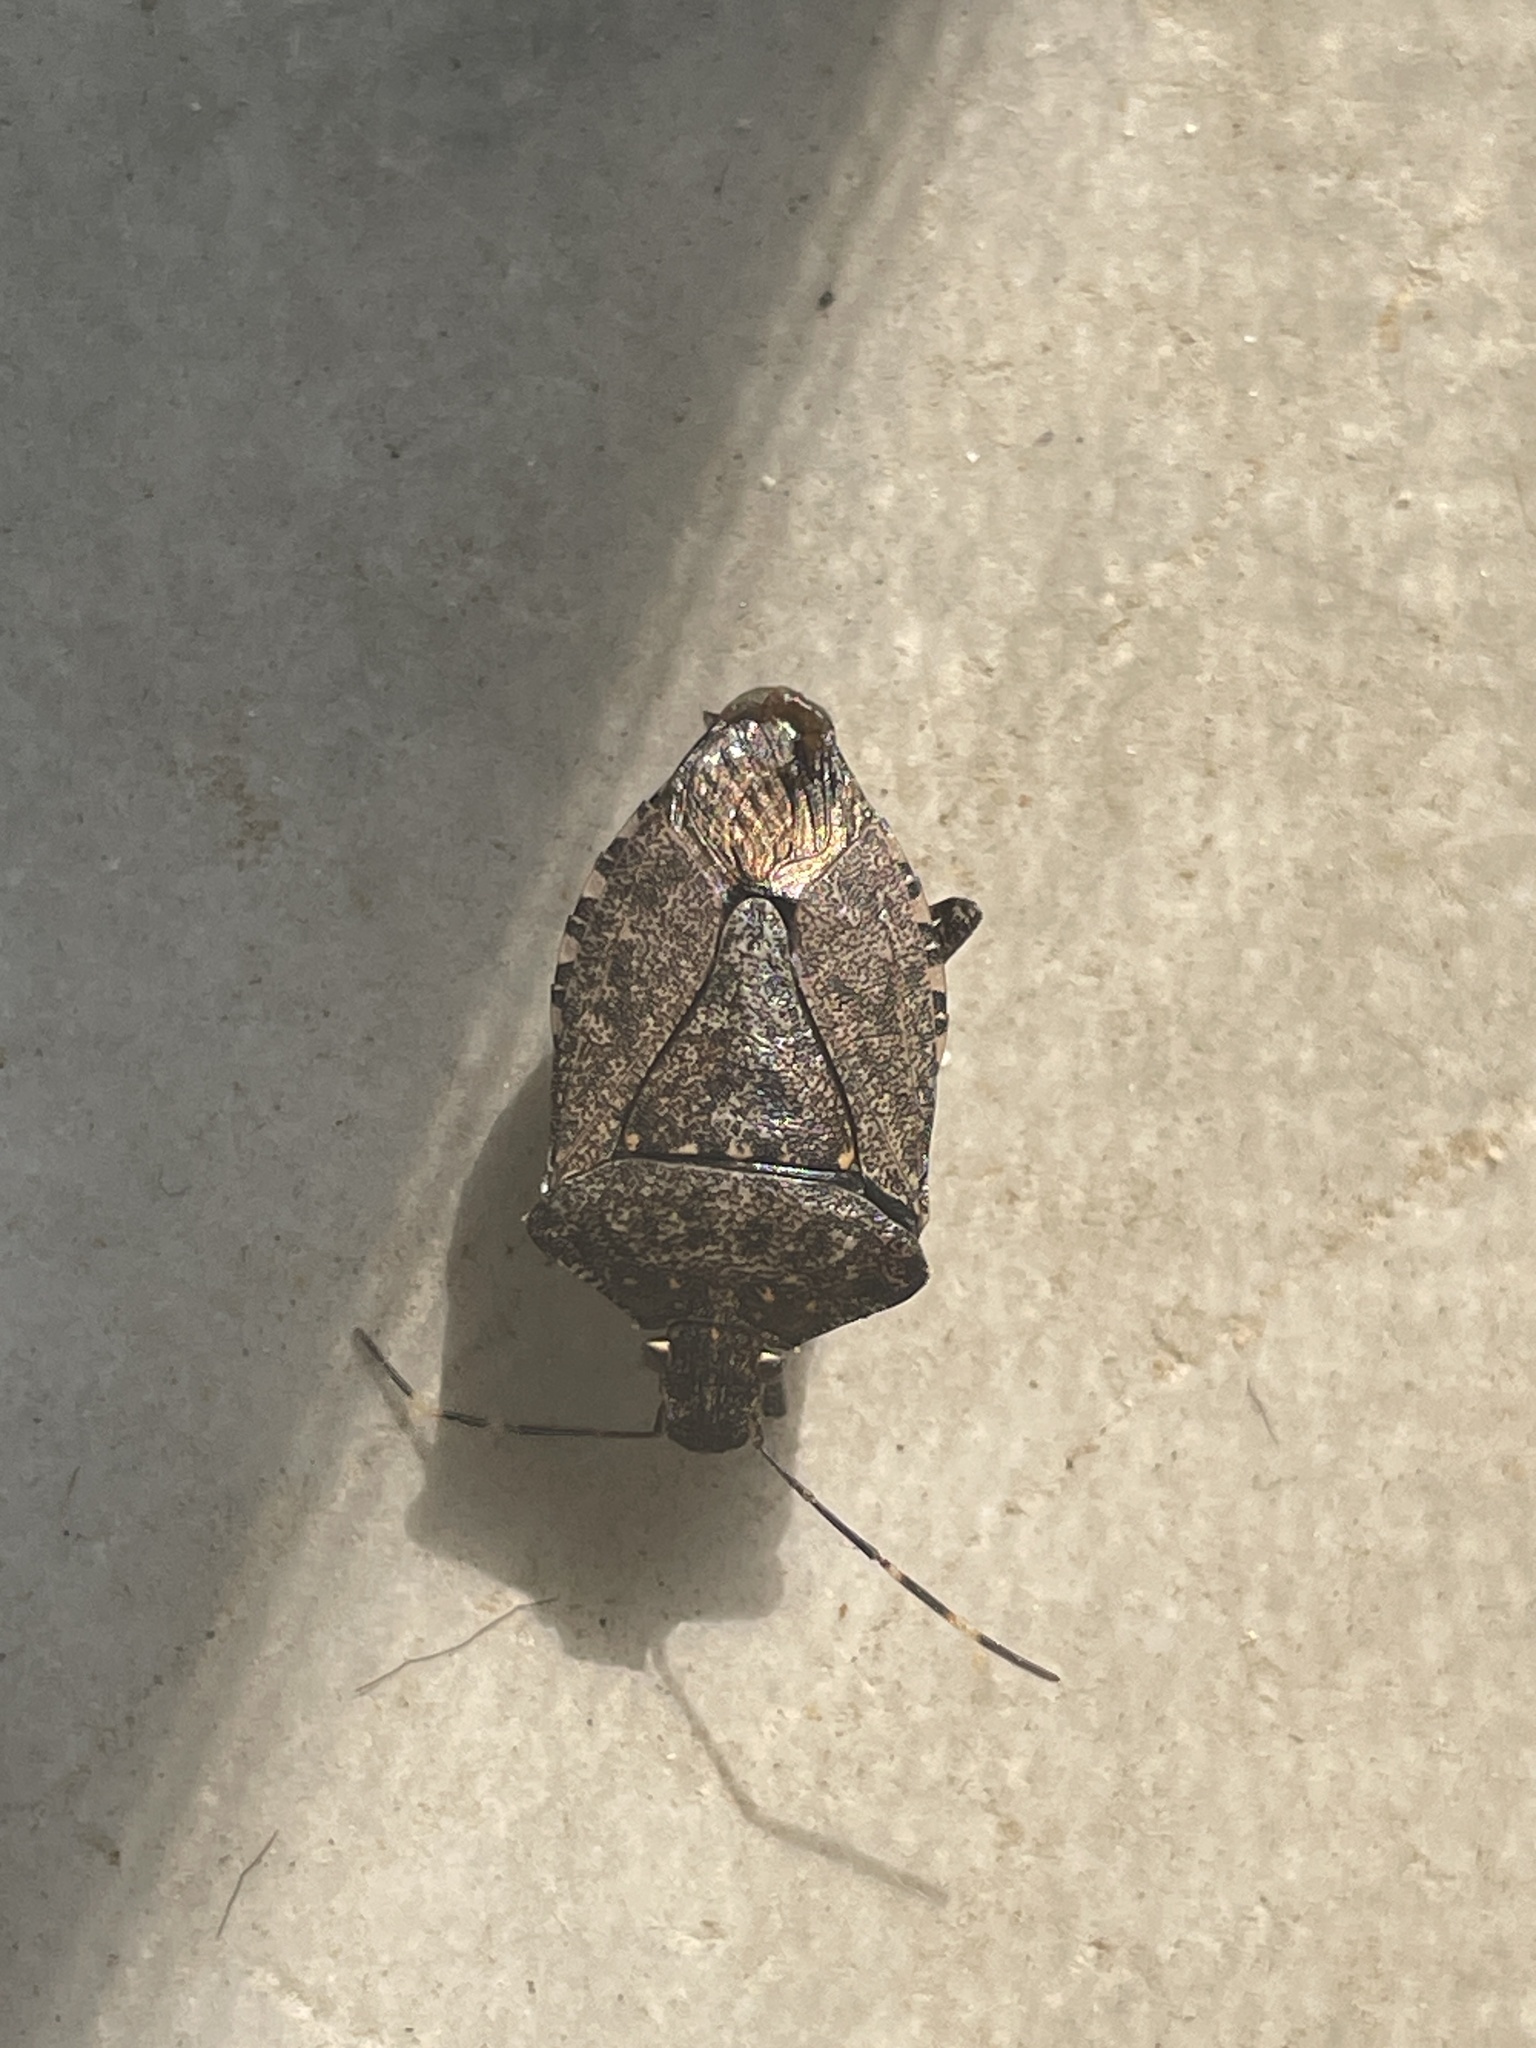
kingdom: Animalia
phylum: Arthropoda
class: Insecta
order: Hemiptera
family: Pentatomidae
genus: Halyomorpha
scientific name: Halyomorpha halys
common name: Brown marmorated stink bug
